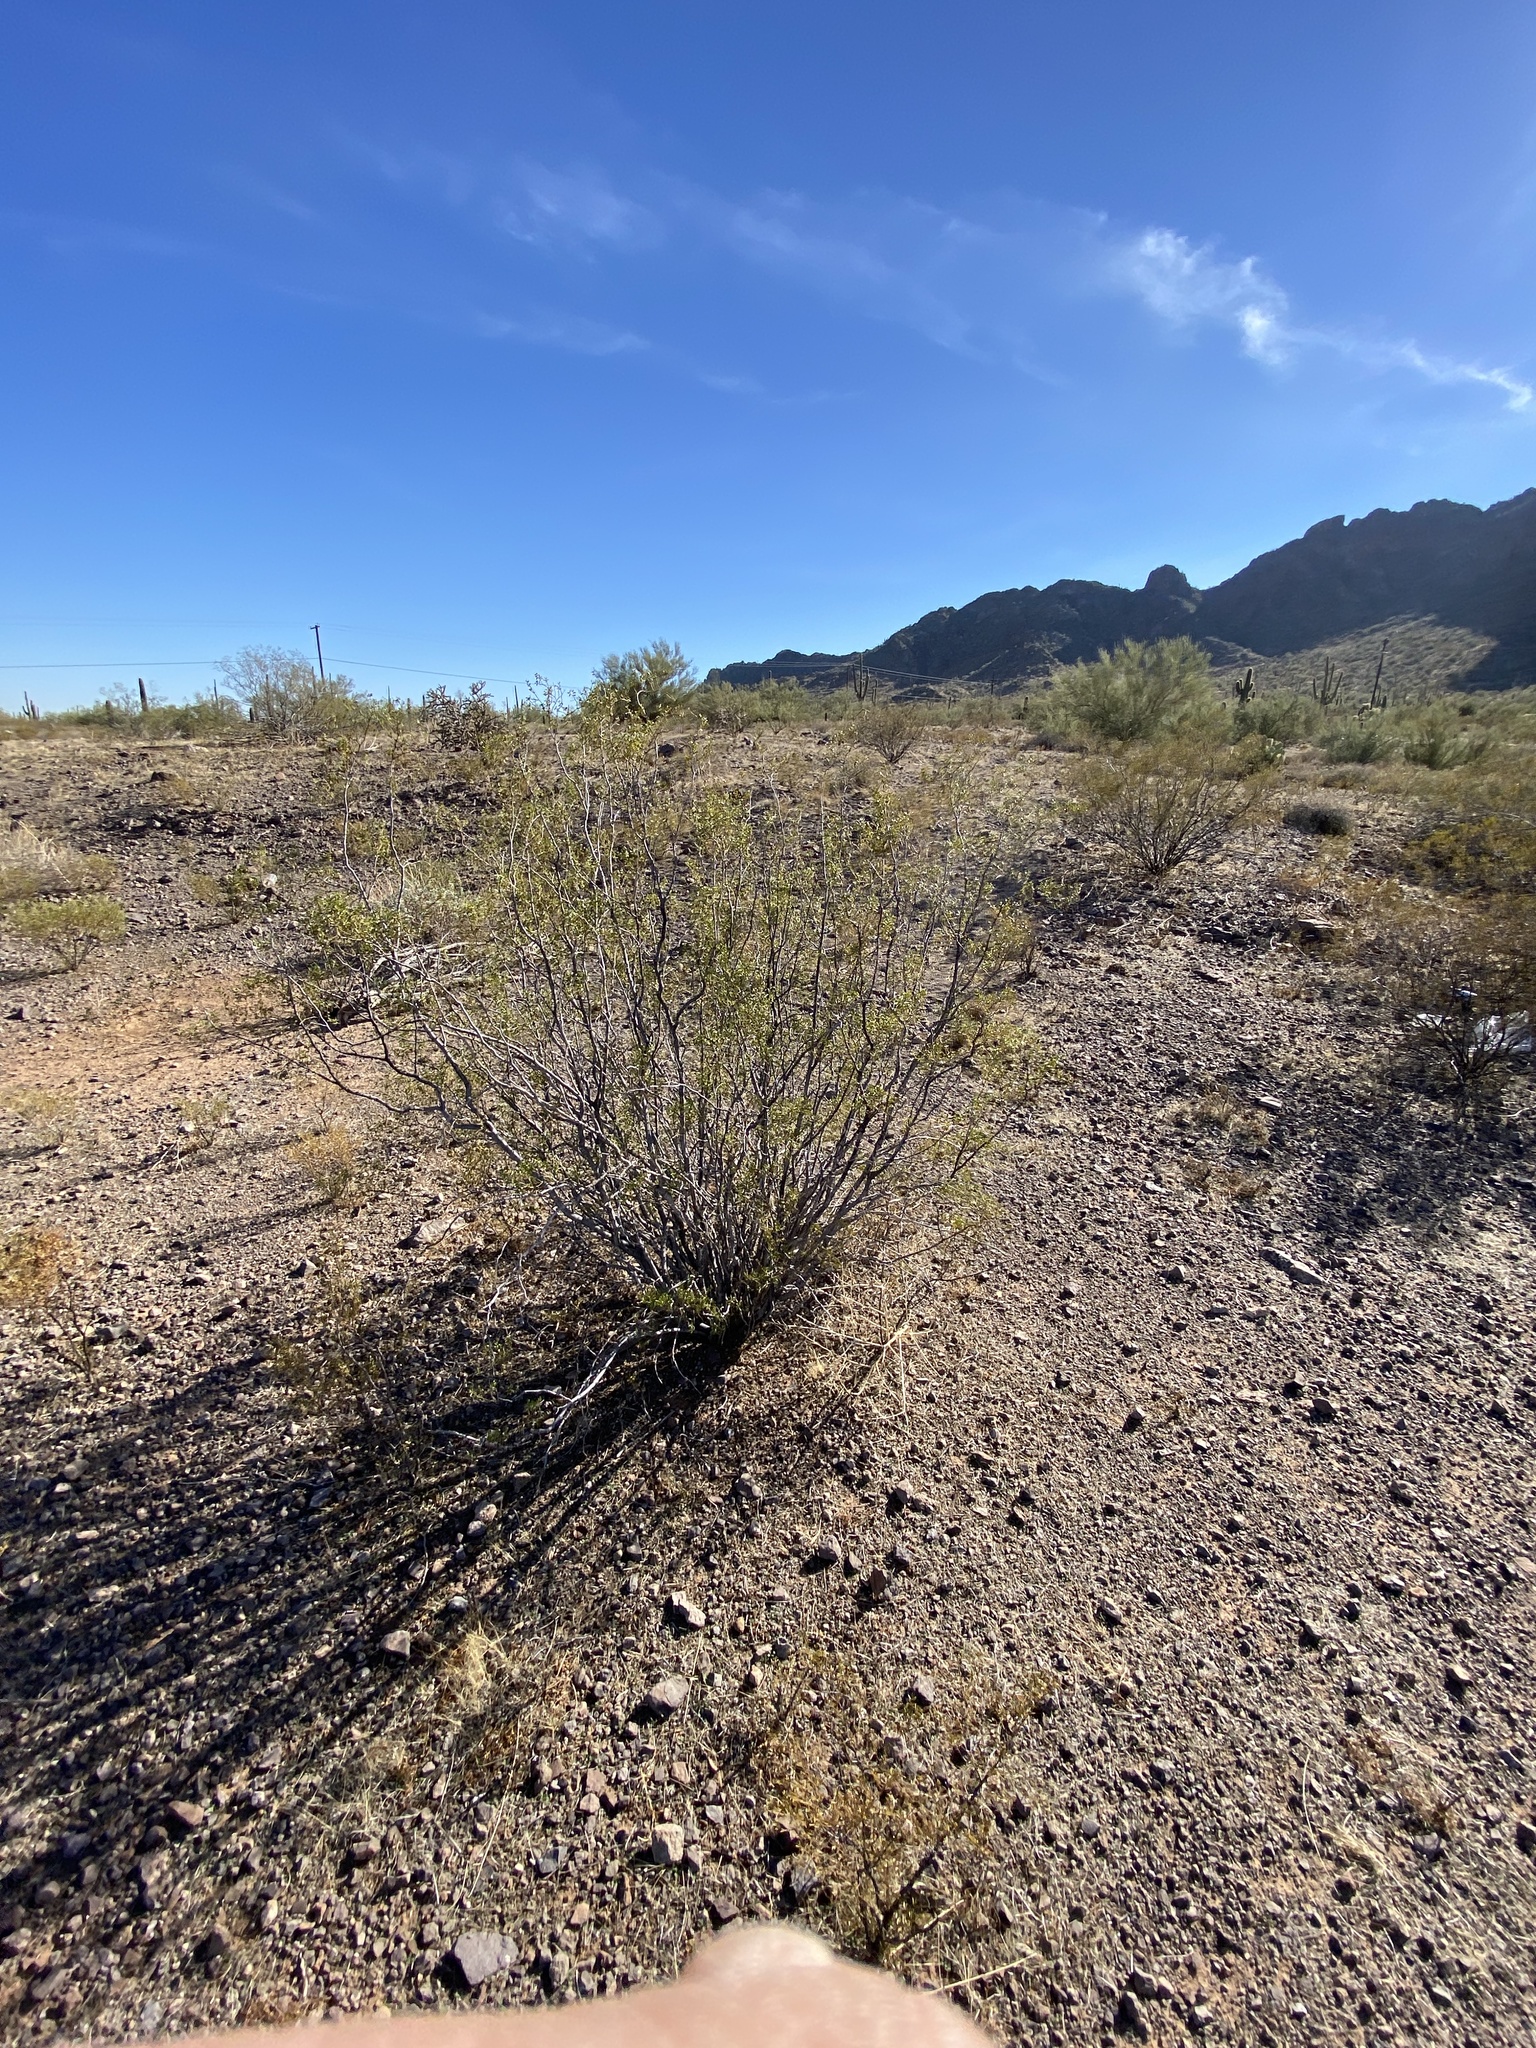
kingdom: Plantae
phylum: Tracheophyta
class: Magnoliopsida
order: Zygophyllales
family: Zygophyllaceae
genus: Larrea
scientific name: Larrea tridentata
